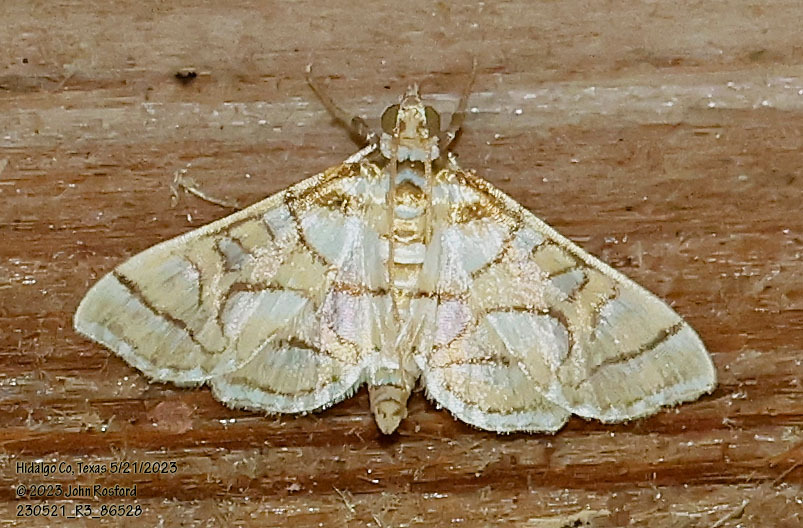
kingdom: Animalia
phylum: Arthropoda
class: Insecta
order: Lepidoptera
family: Crambidae
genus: Pseudopyrausta
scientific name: Pseudopyrausta santatalis
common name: Moth
